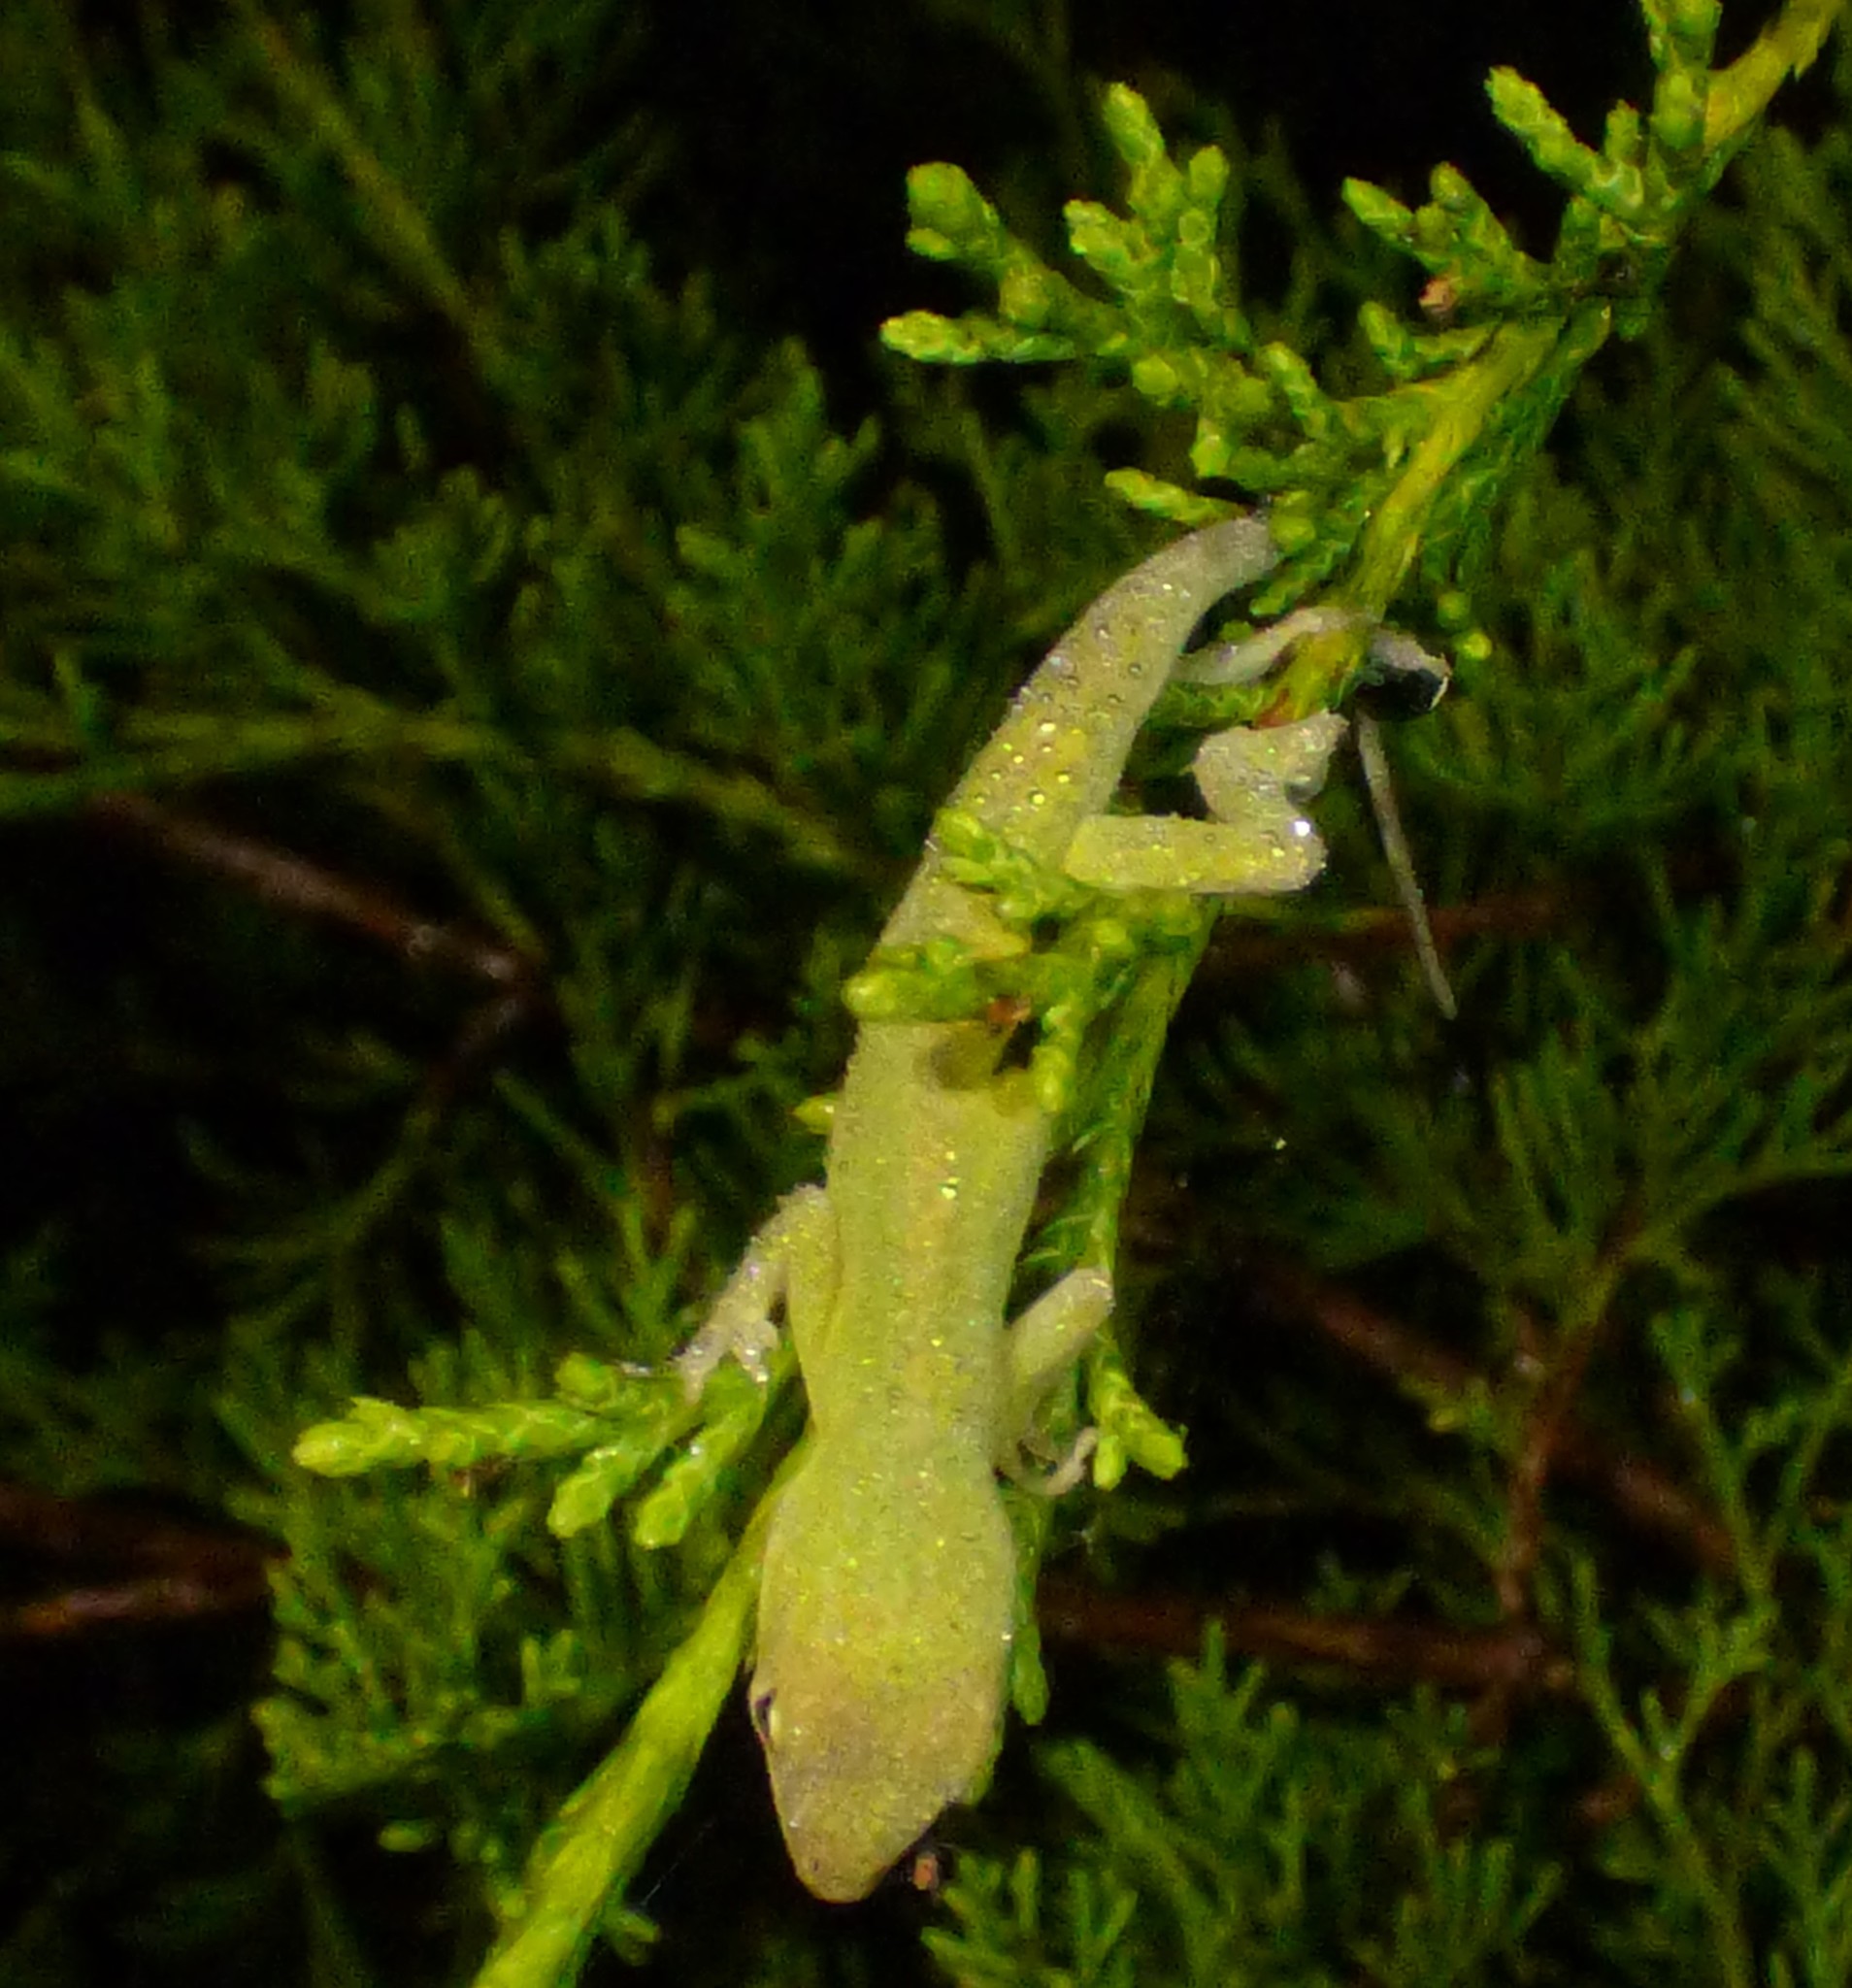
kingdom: Animalia
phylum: Chordata
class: Squamata
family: Dactyloidae
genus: Anolis
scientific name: Anolis carolinensis
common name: Green anole
